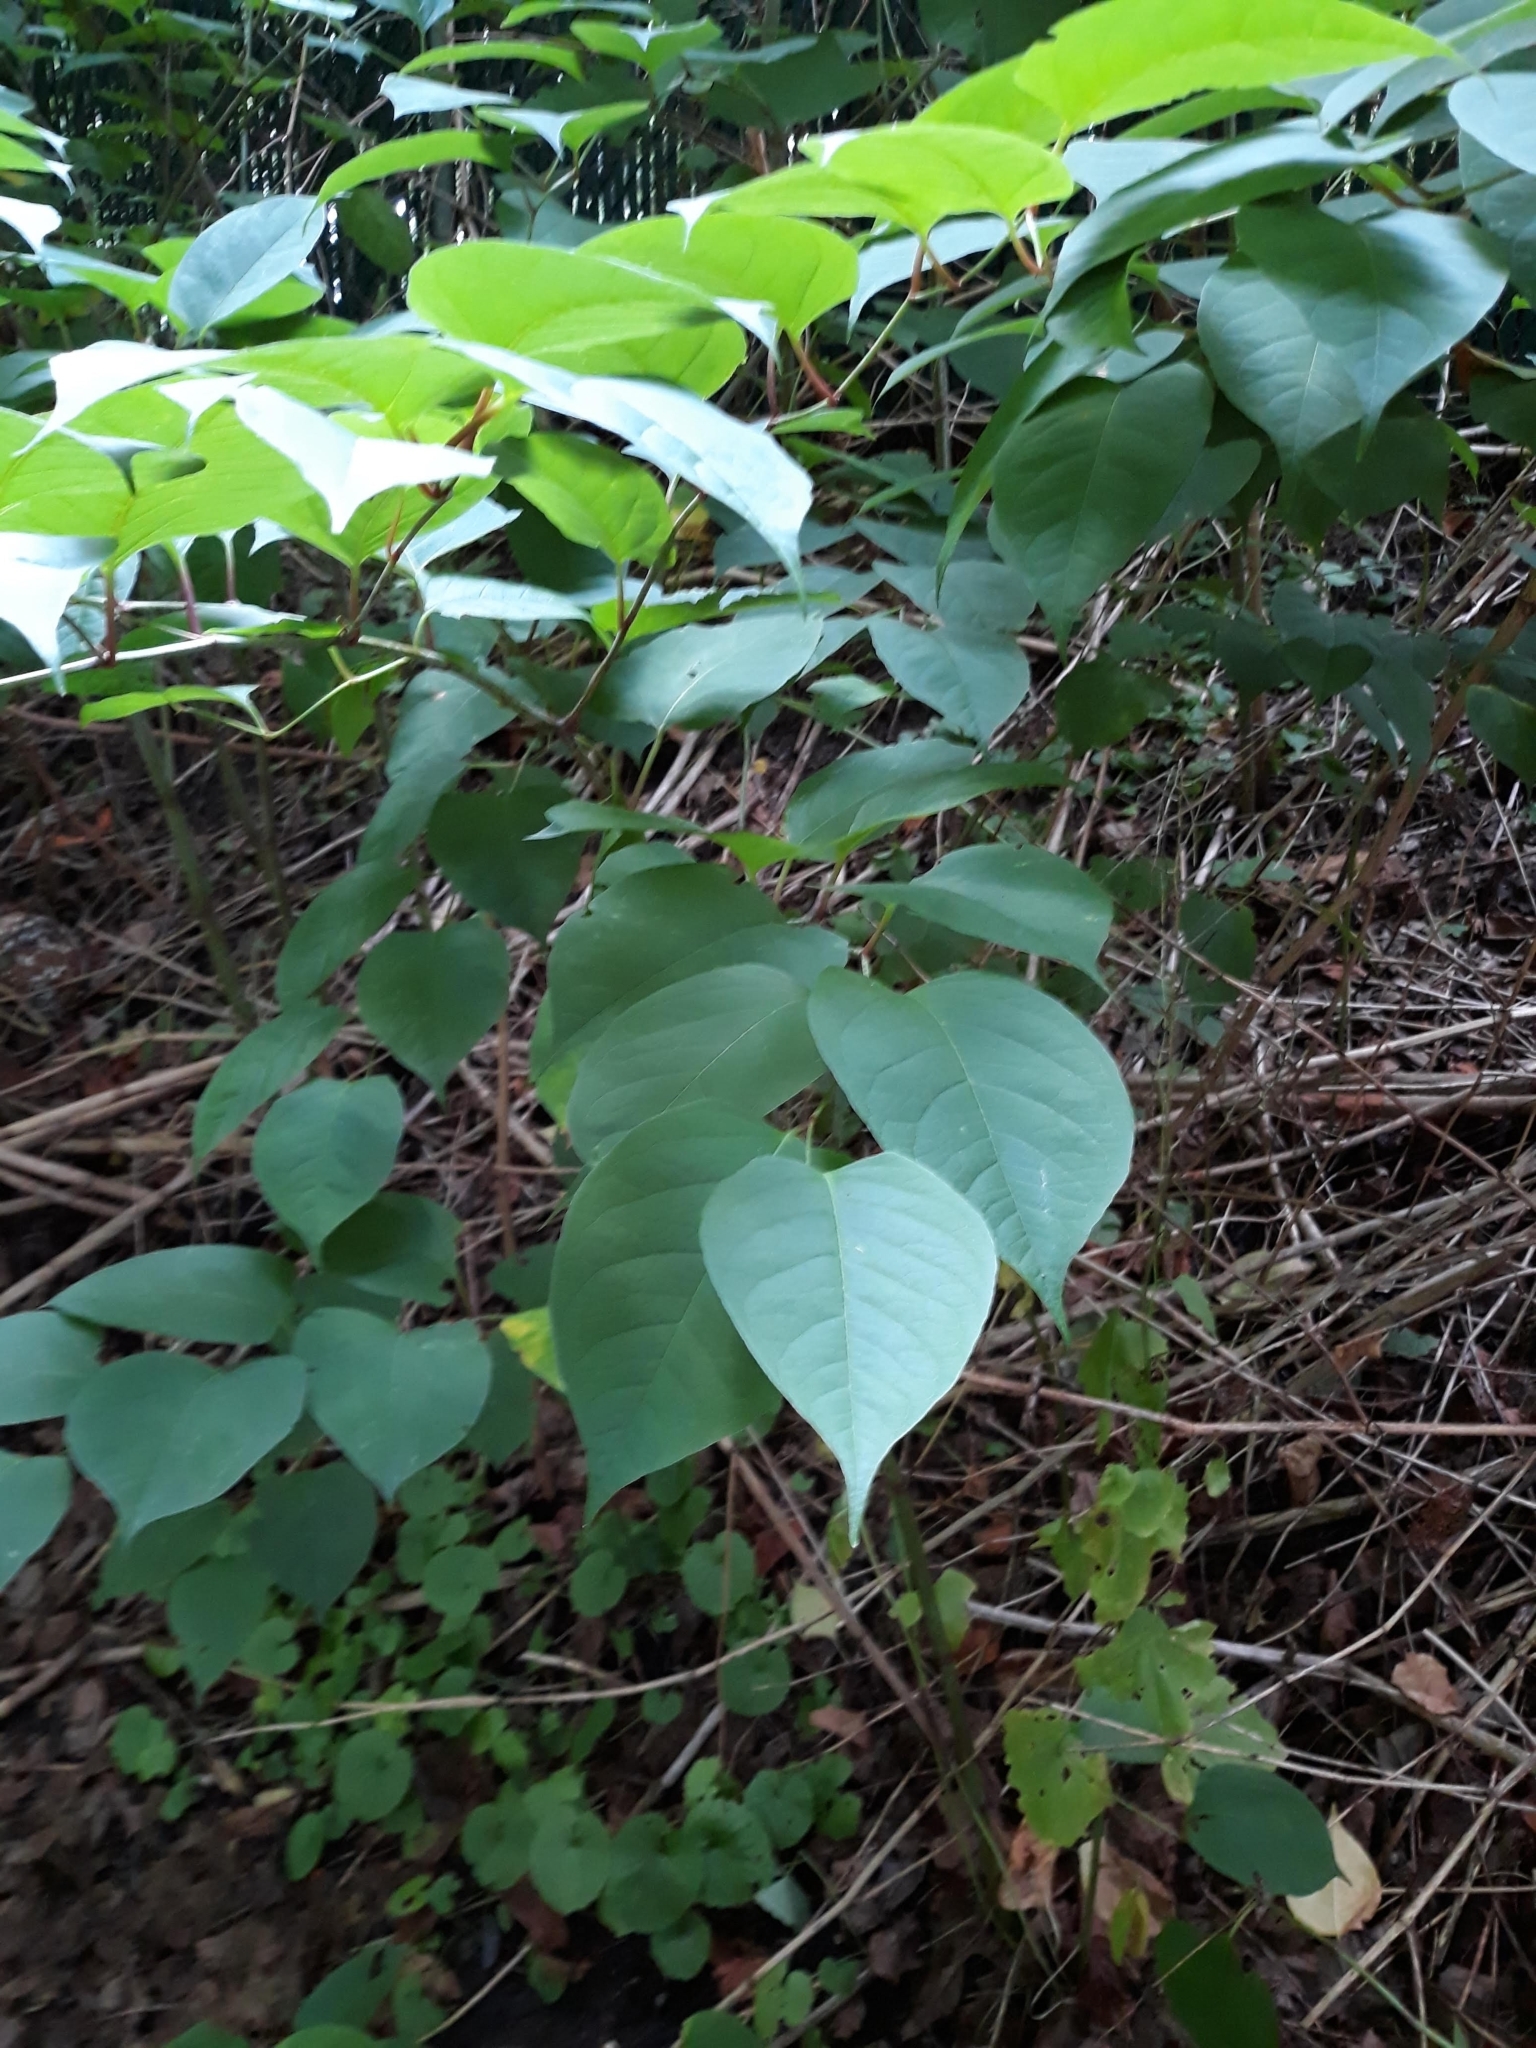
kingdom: Plantae
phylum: Tracheophyta
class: Magnoliopsida
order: Caryophyllales
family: Polygonaceae
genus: Reynoutria
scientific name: Reynoutria
